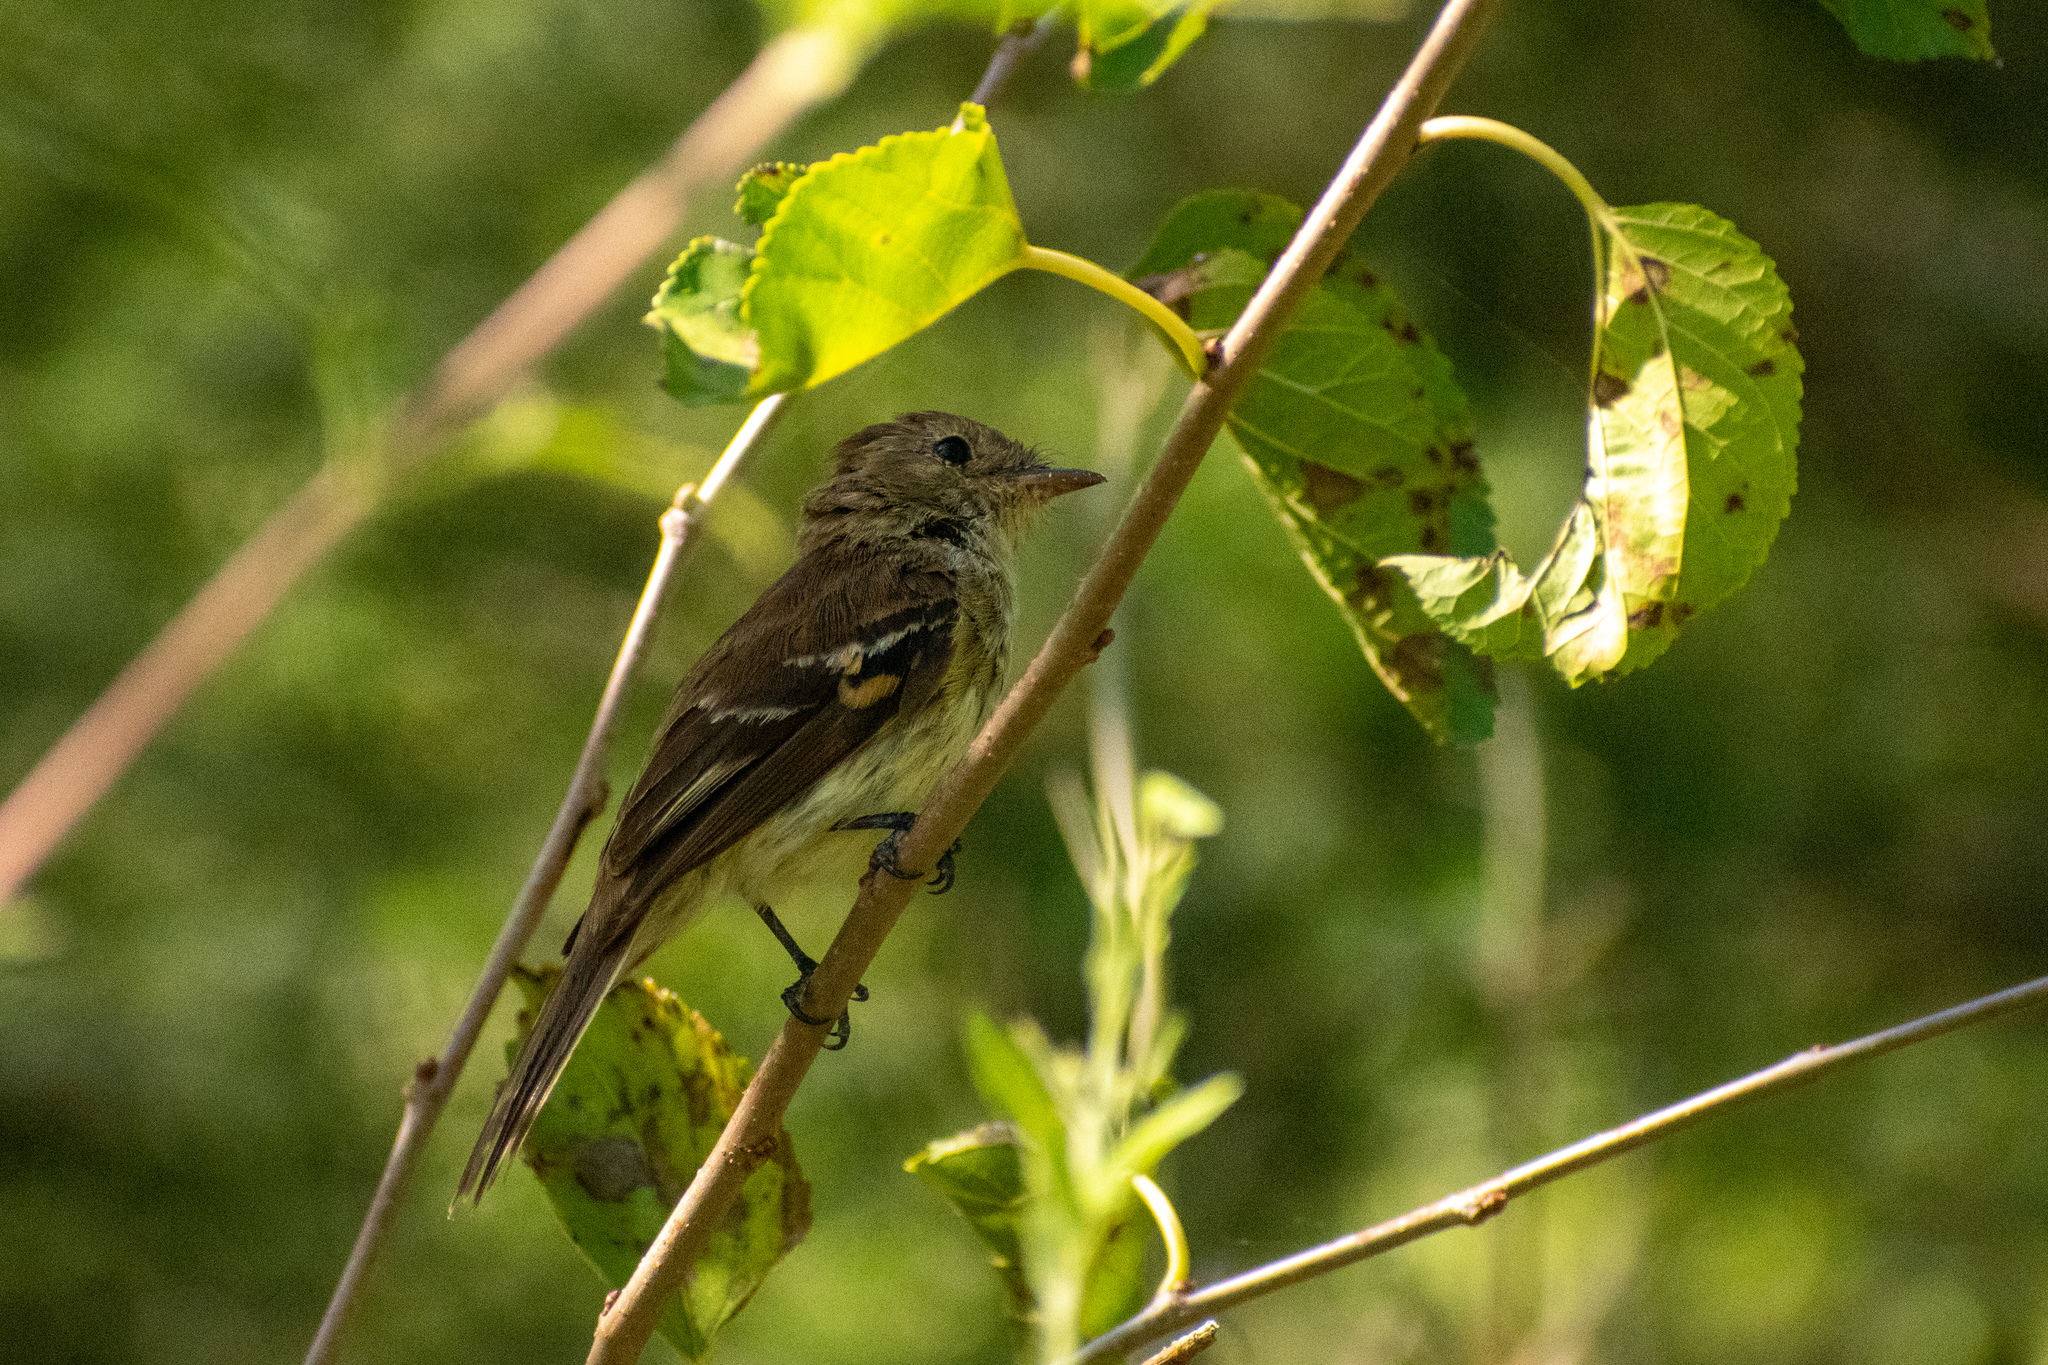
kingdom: Animalia
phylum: Chordata
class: Aves
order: Passeriformes
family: Tyrannidae
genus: Myiophobus
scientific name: Myiophobus fasciatus
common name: Bran-colored flycatcher
